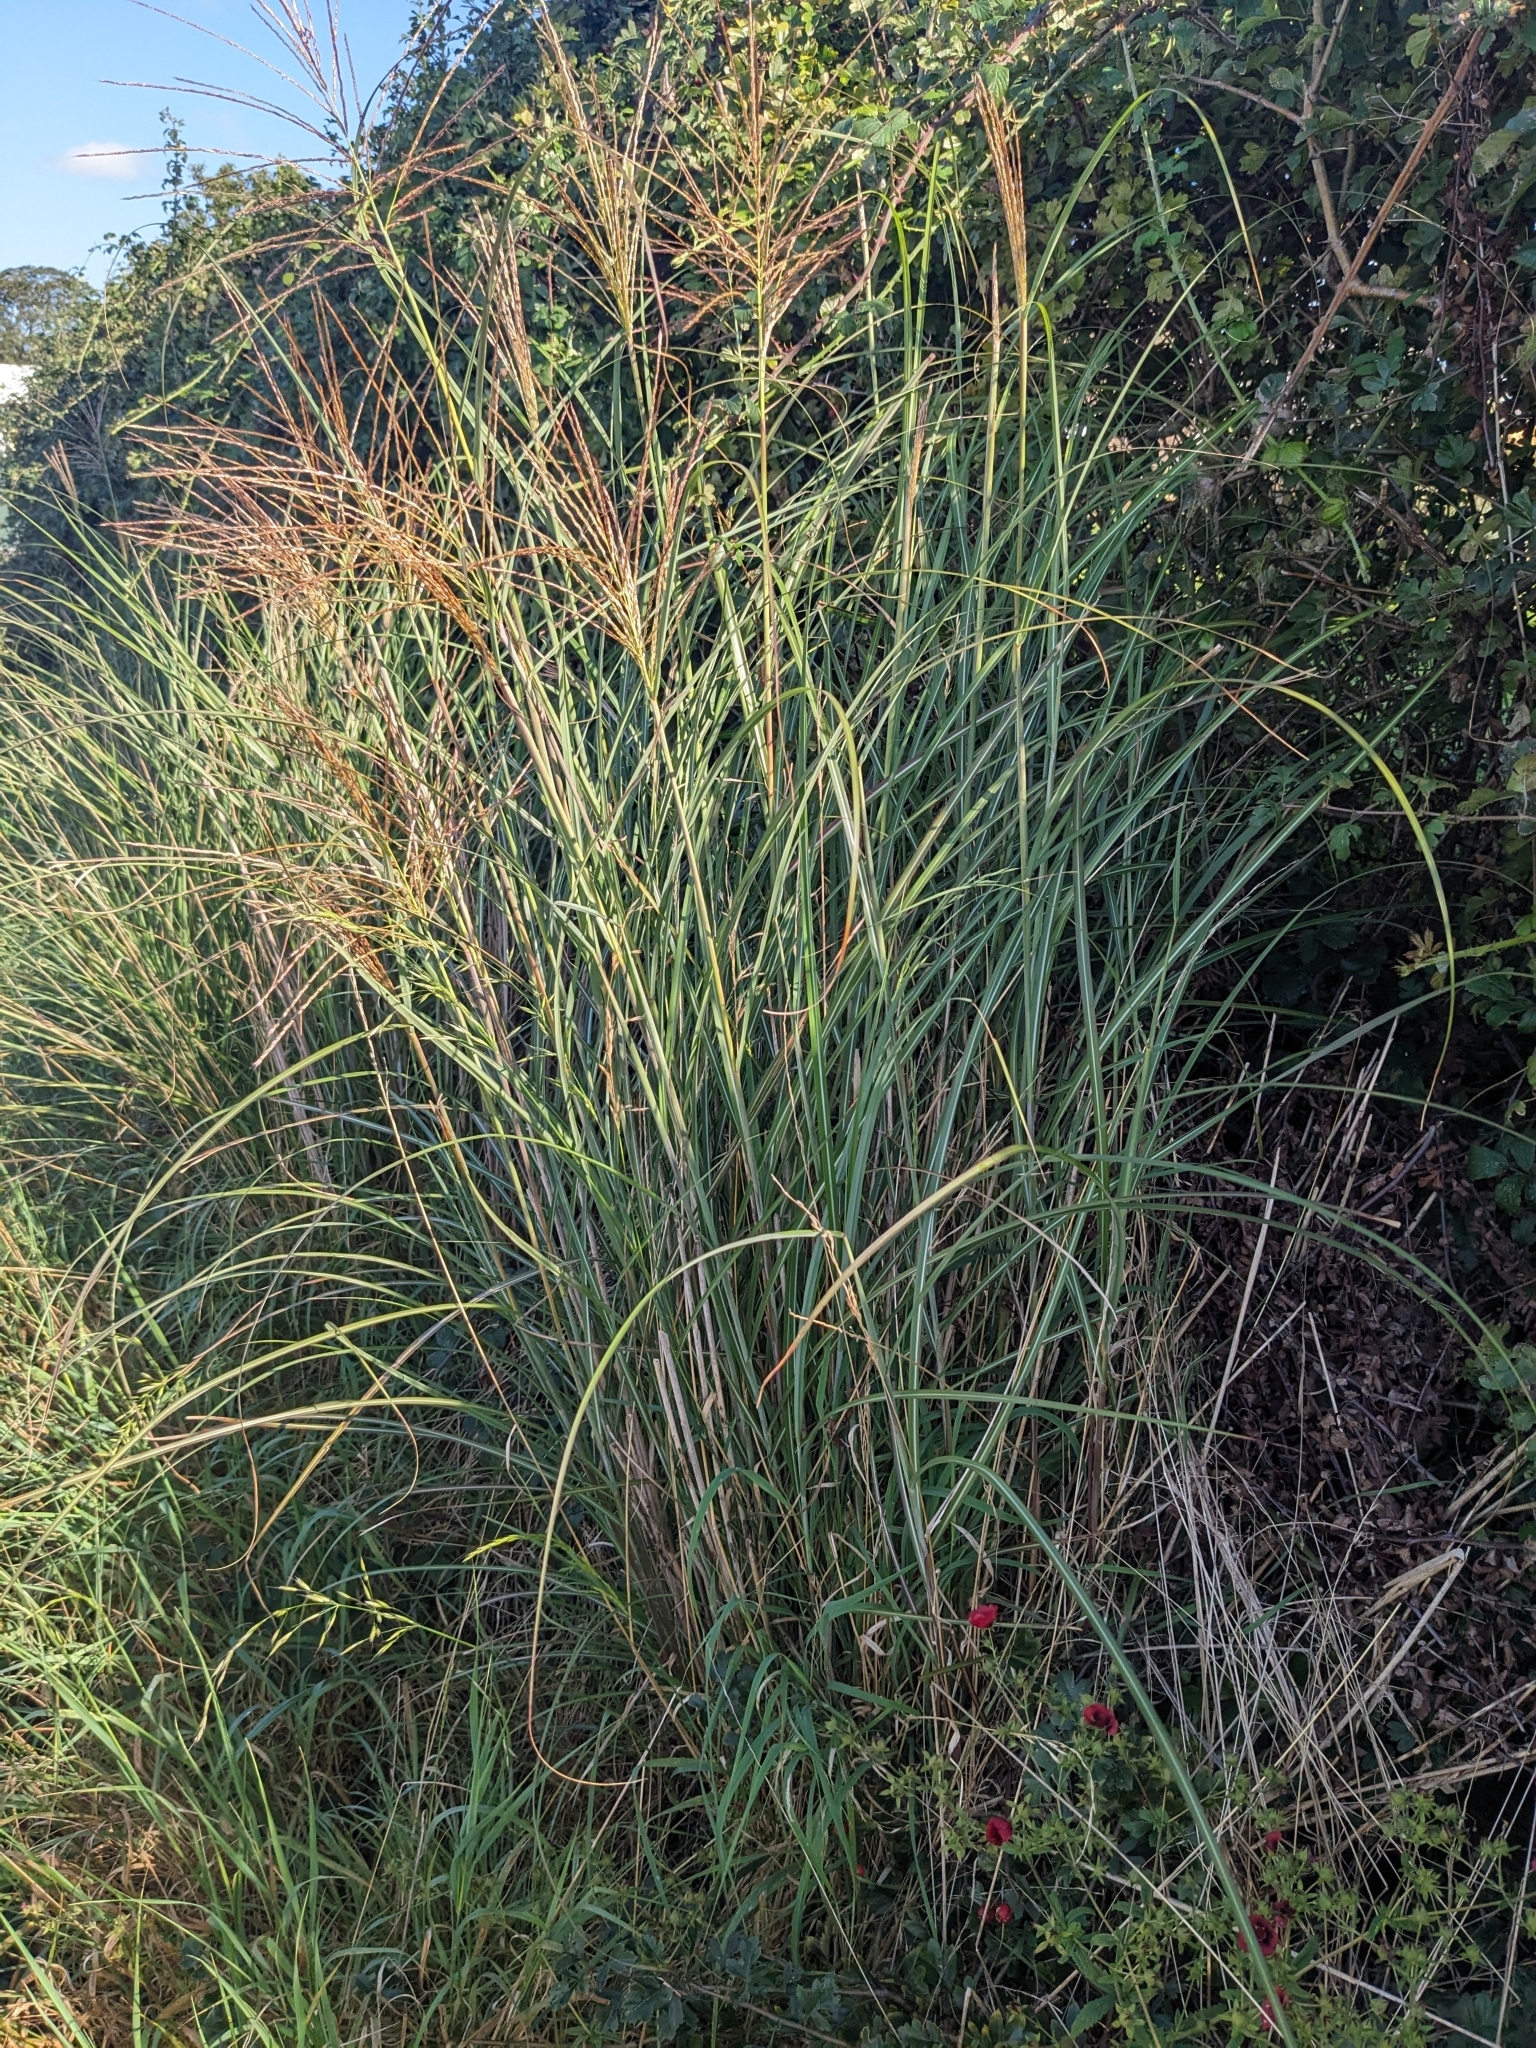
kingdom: Plantae
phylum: Tracheophyta
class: Liliopsida
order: Poales
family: Poaceae
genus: Miscanthus
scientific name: Miscanthus sinensis
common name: Chinese silvergrass
